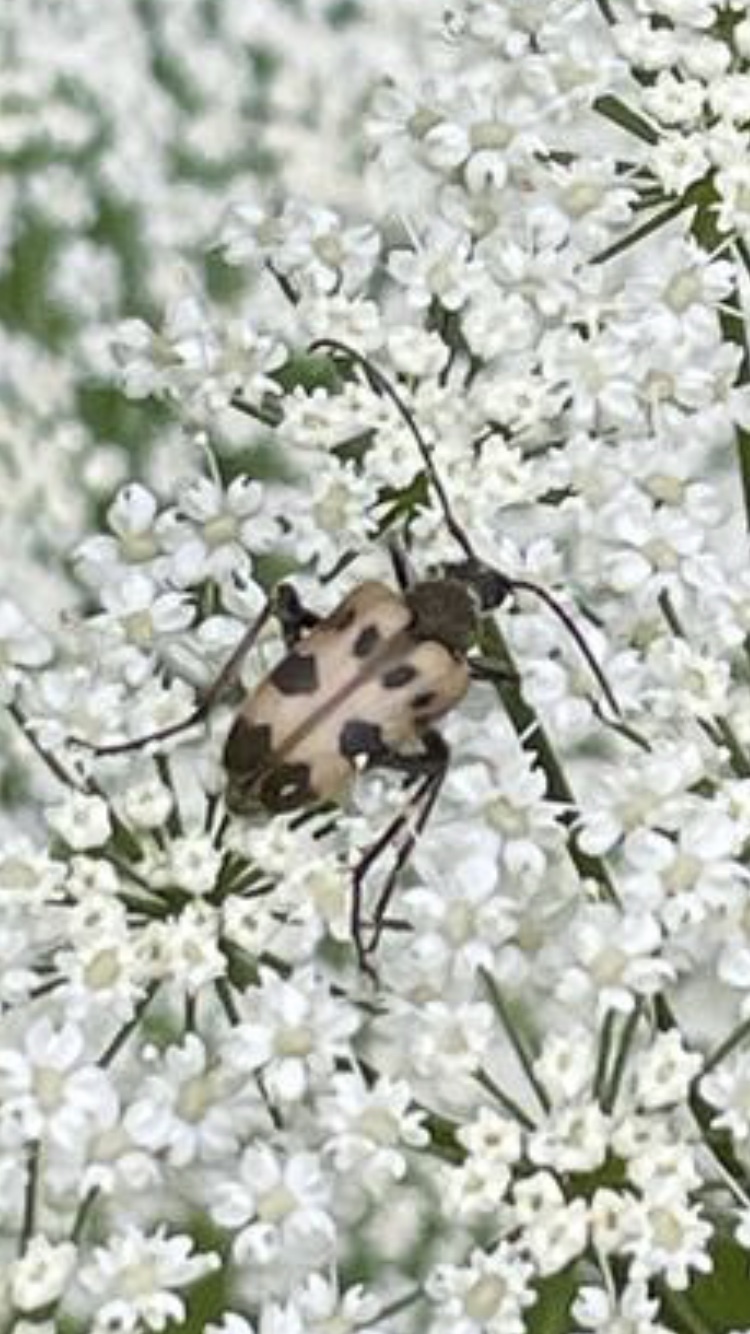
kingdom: Animalia
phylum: Arthropoda
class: Insecta
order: Coleoptera
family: Cerambycidae
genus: Pachytodes
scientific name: Pachytodes cerambyciformis
